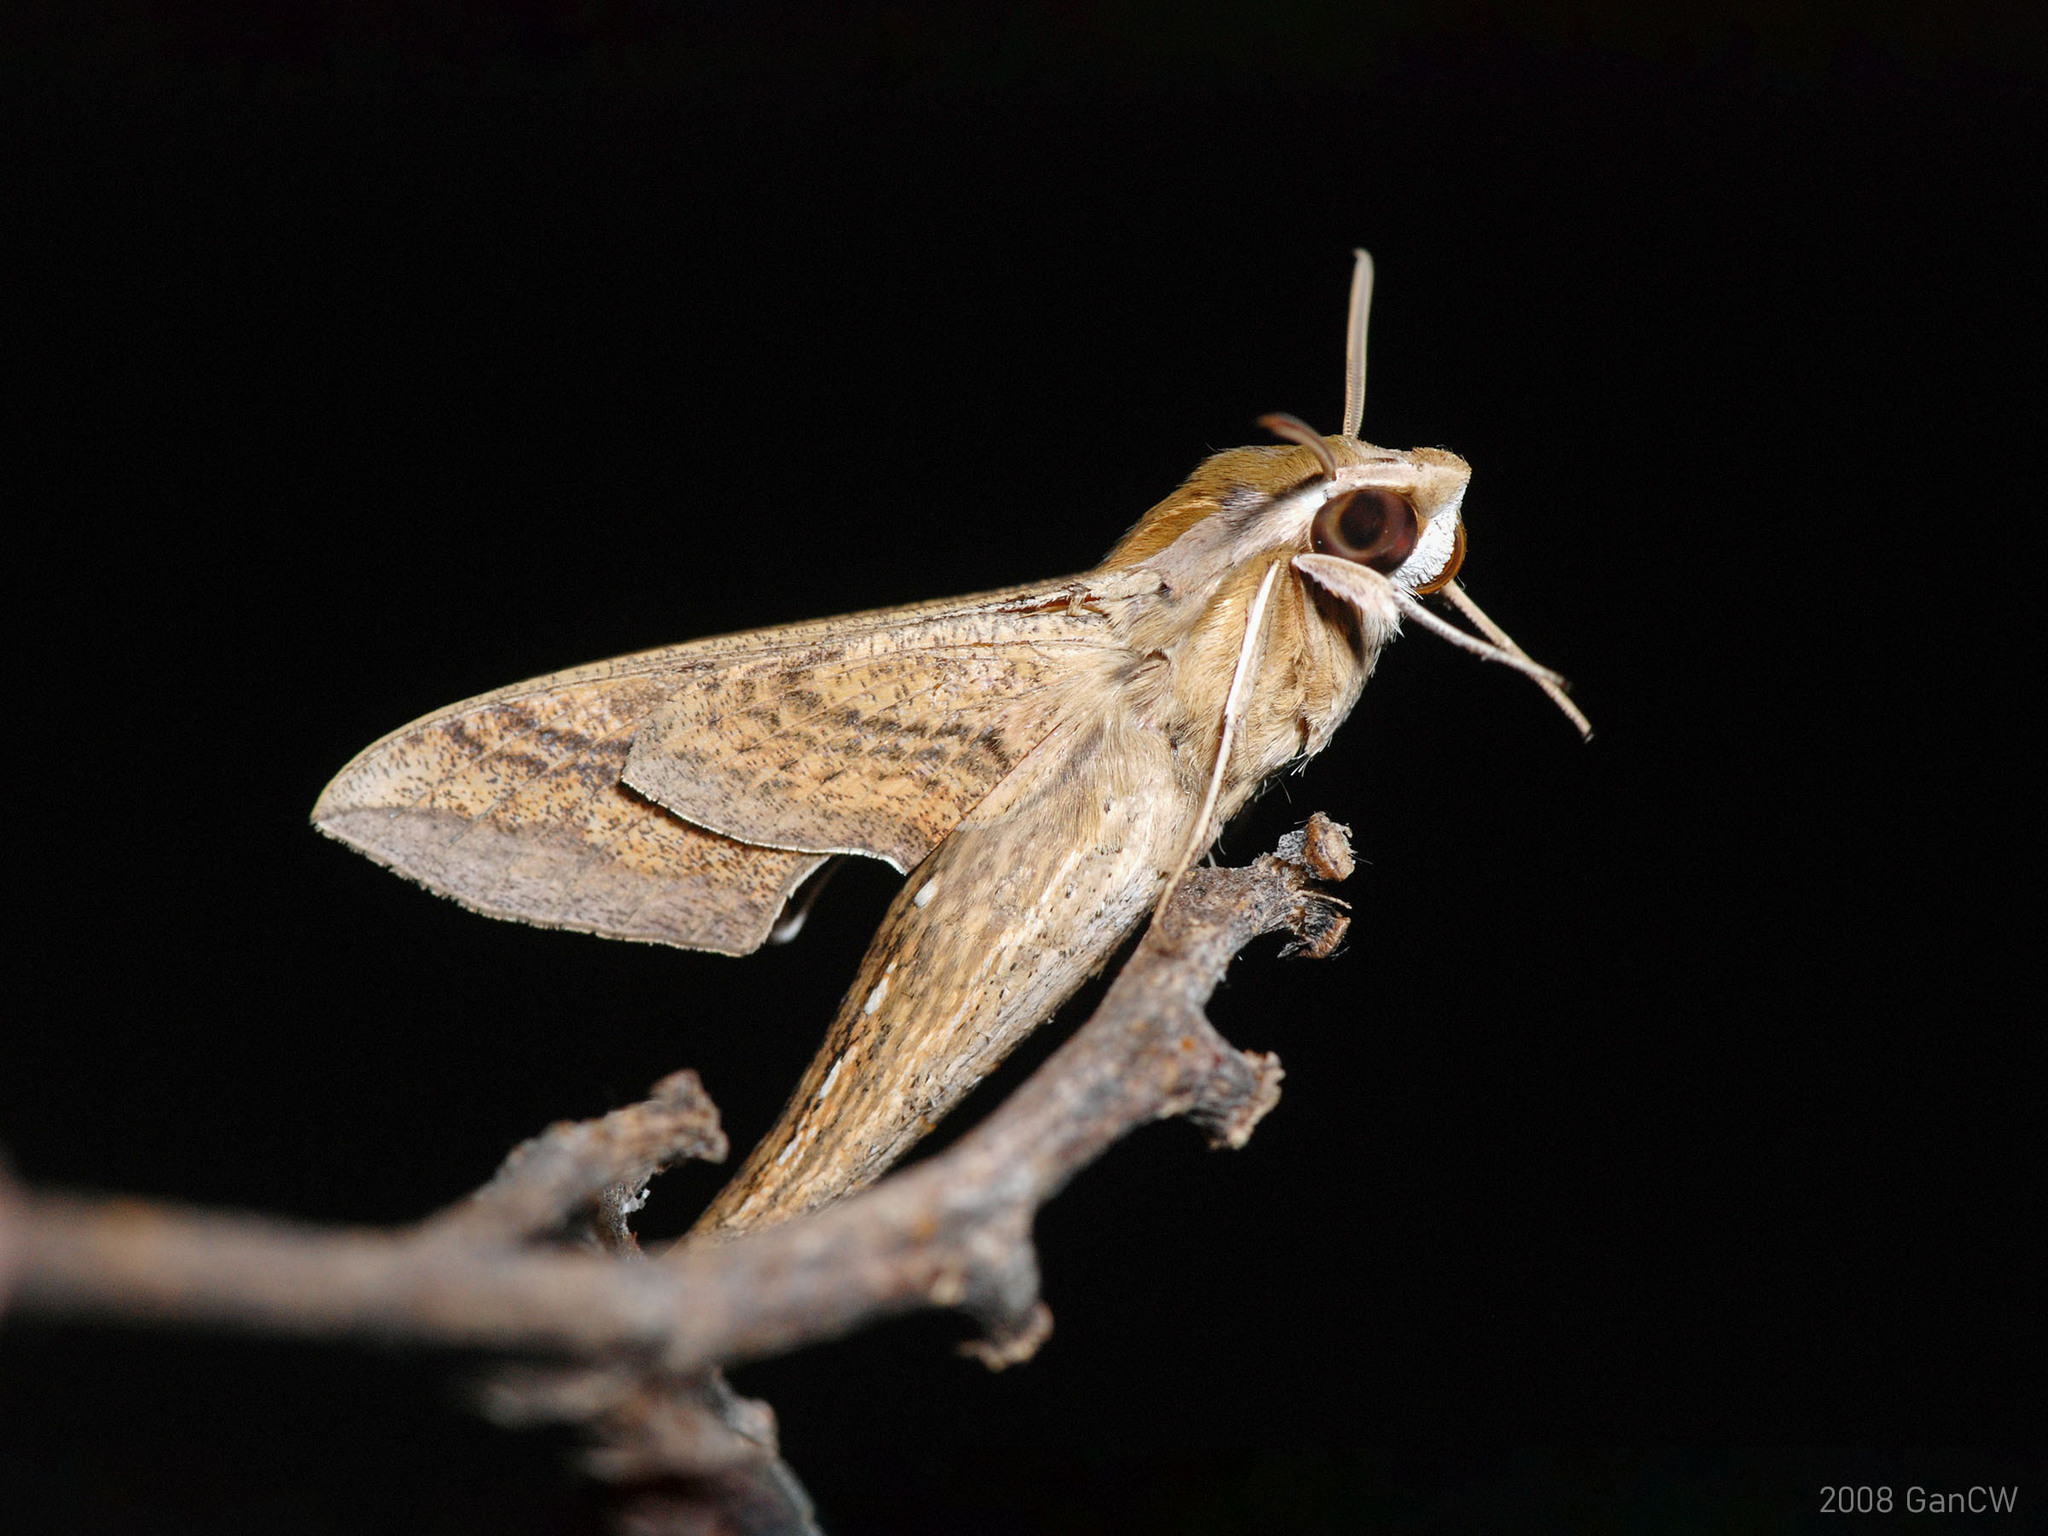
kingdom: Animalia
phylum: Arthropoda
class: Insecta
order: Lepidoptera
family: Sphingidae
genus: Hippotion
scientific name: Hippotion celerio
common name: Silver-striped hawk-moth
